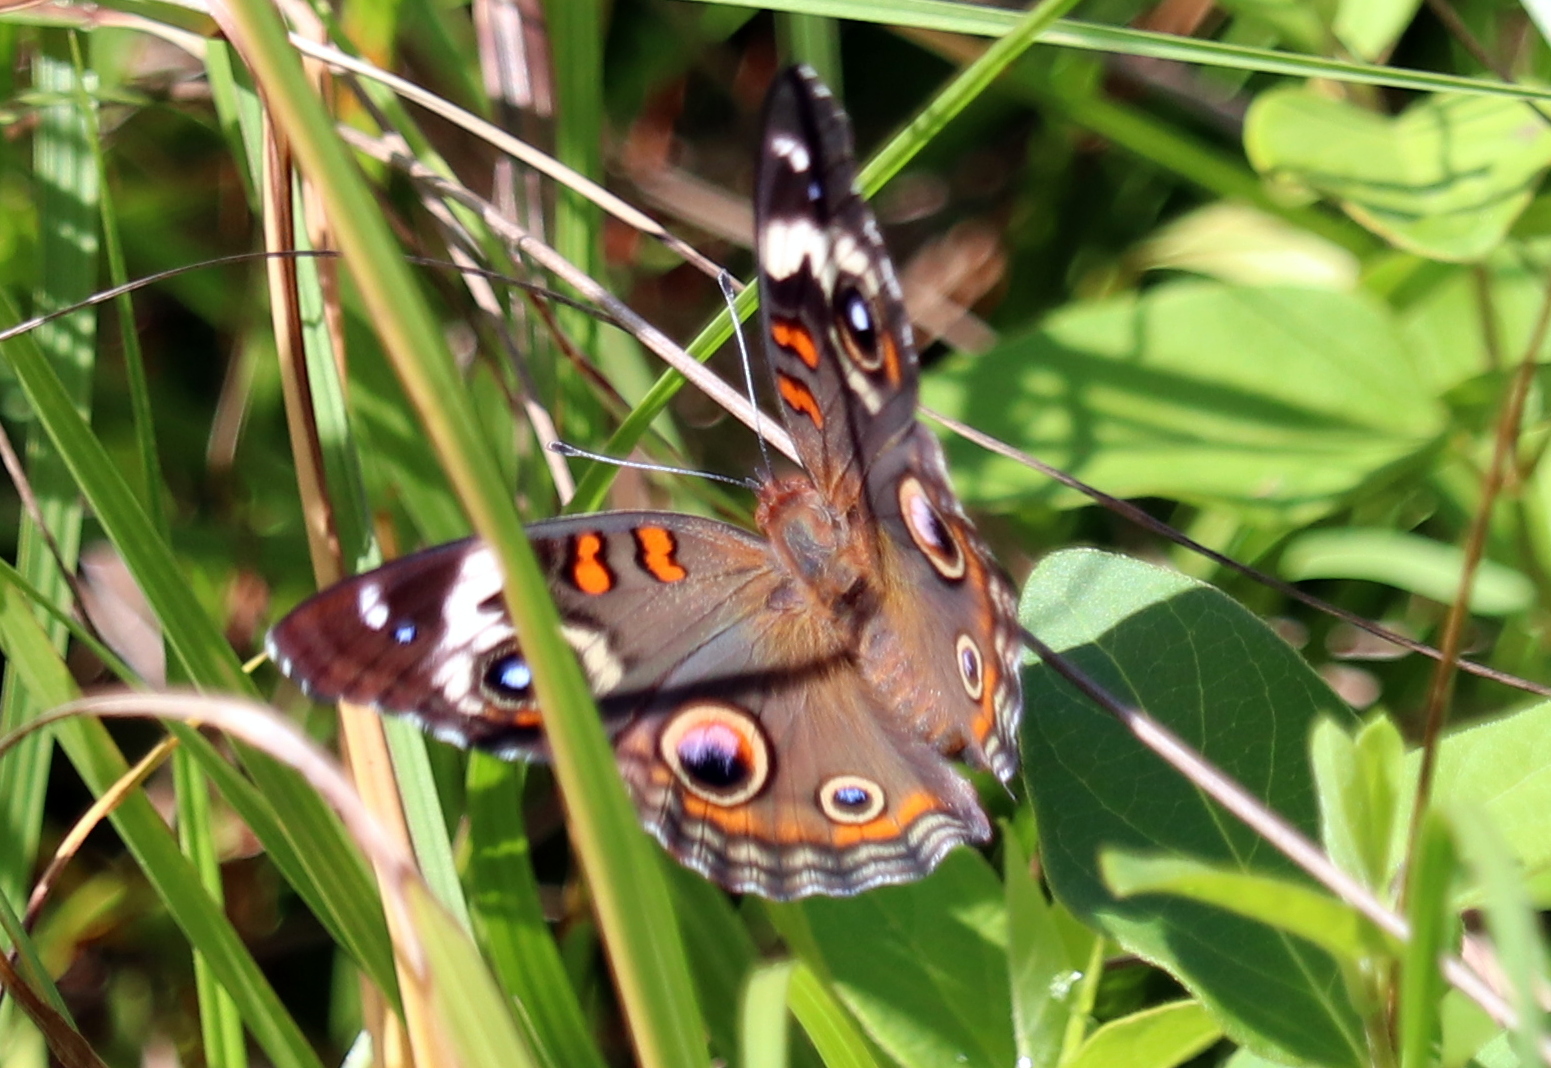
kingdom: Animalia
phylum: Arthropoda
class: Insecta
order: Lepidoptera
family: Nymphalidae
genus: Junonia
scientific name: Junonia coenia
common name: Common buckeye
